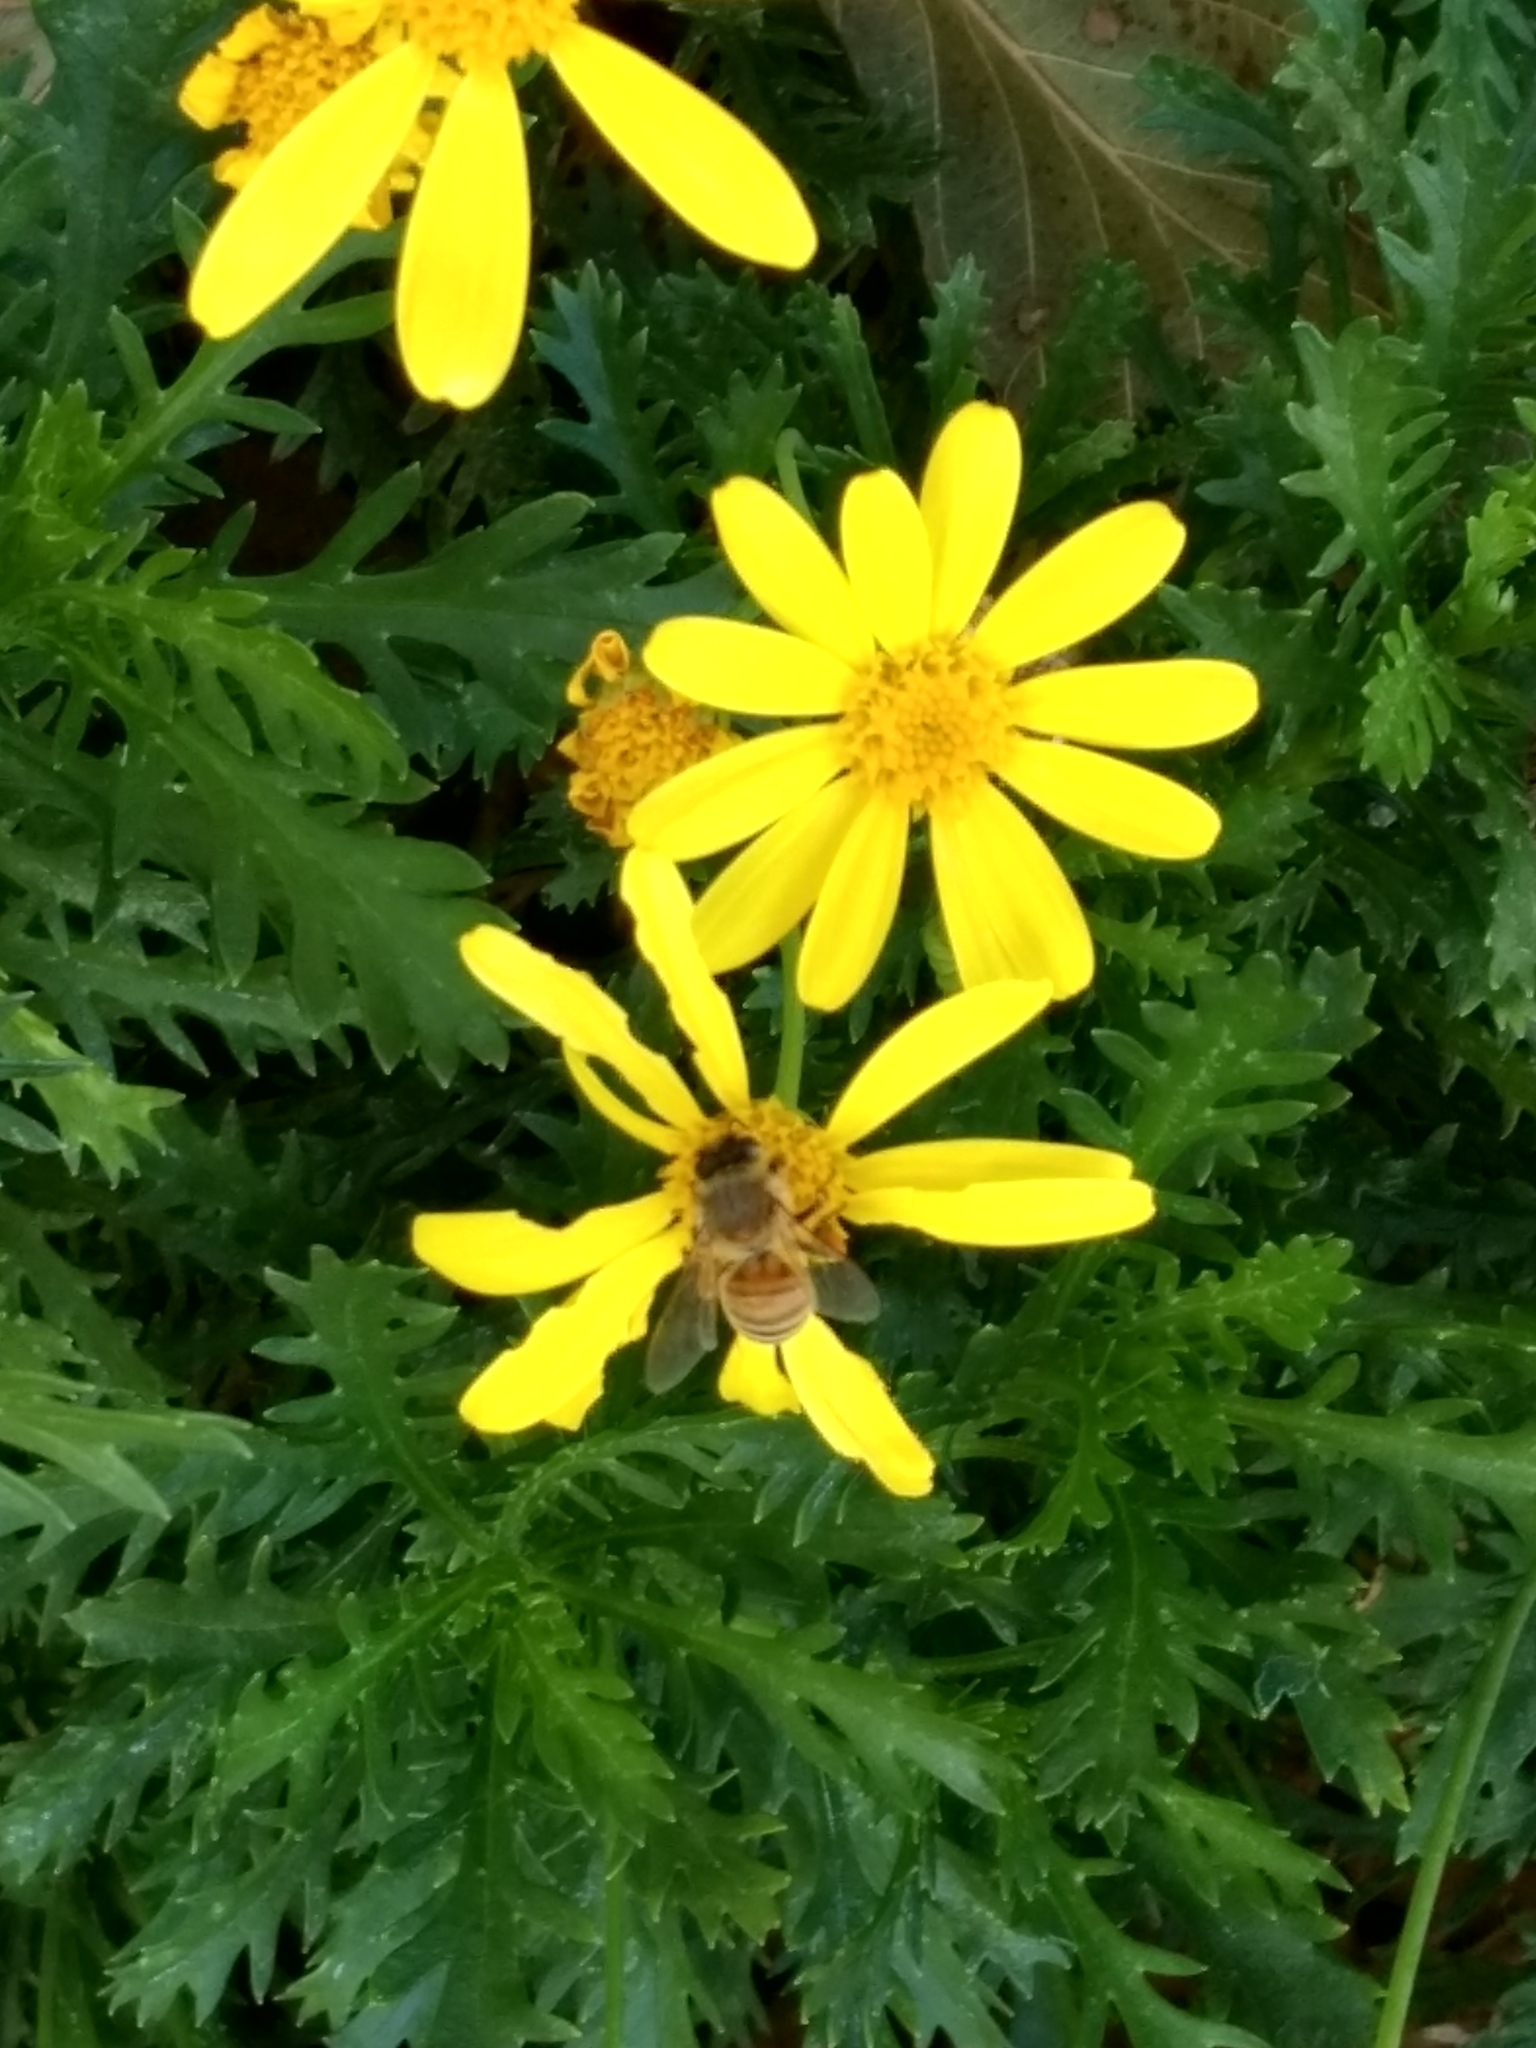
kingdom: Animalia
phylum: Arthropoda
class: Insecta
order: Hymenoptera
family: Apidae
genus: Apis
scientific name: Apis mellifera
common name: Honey bee
